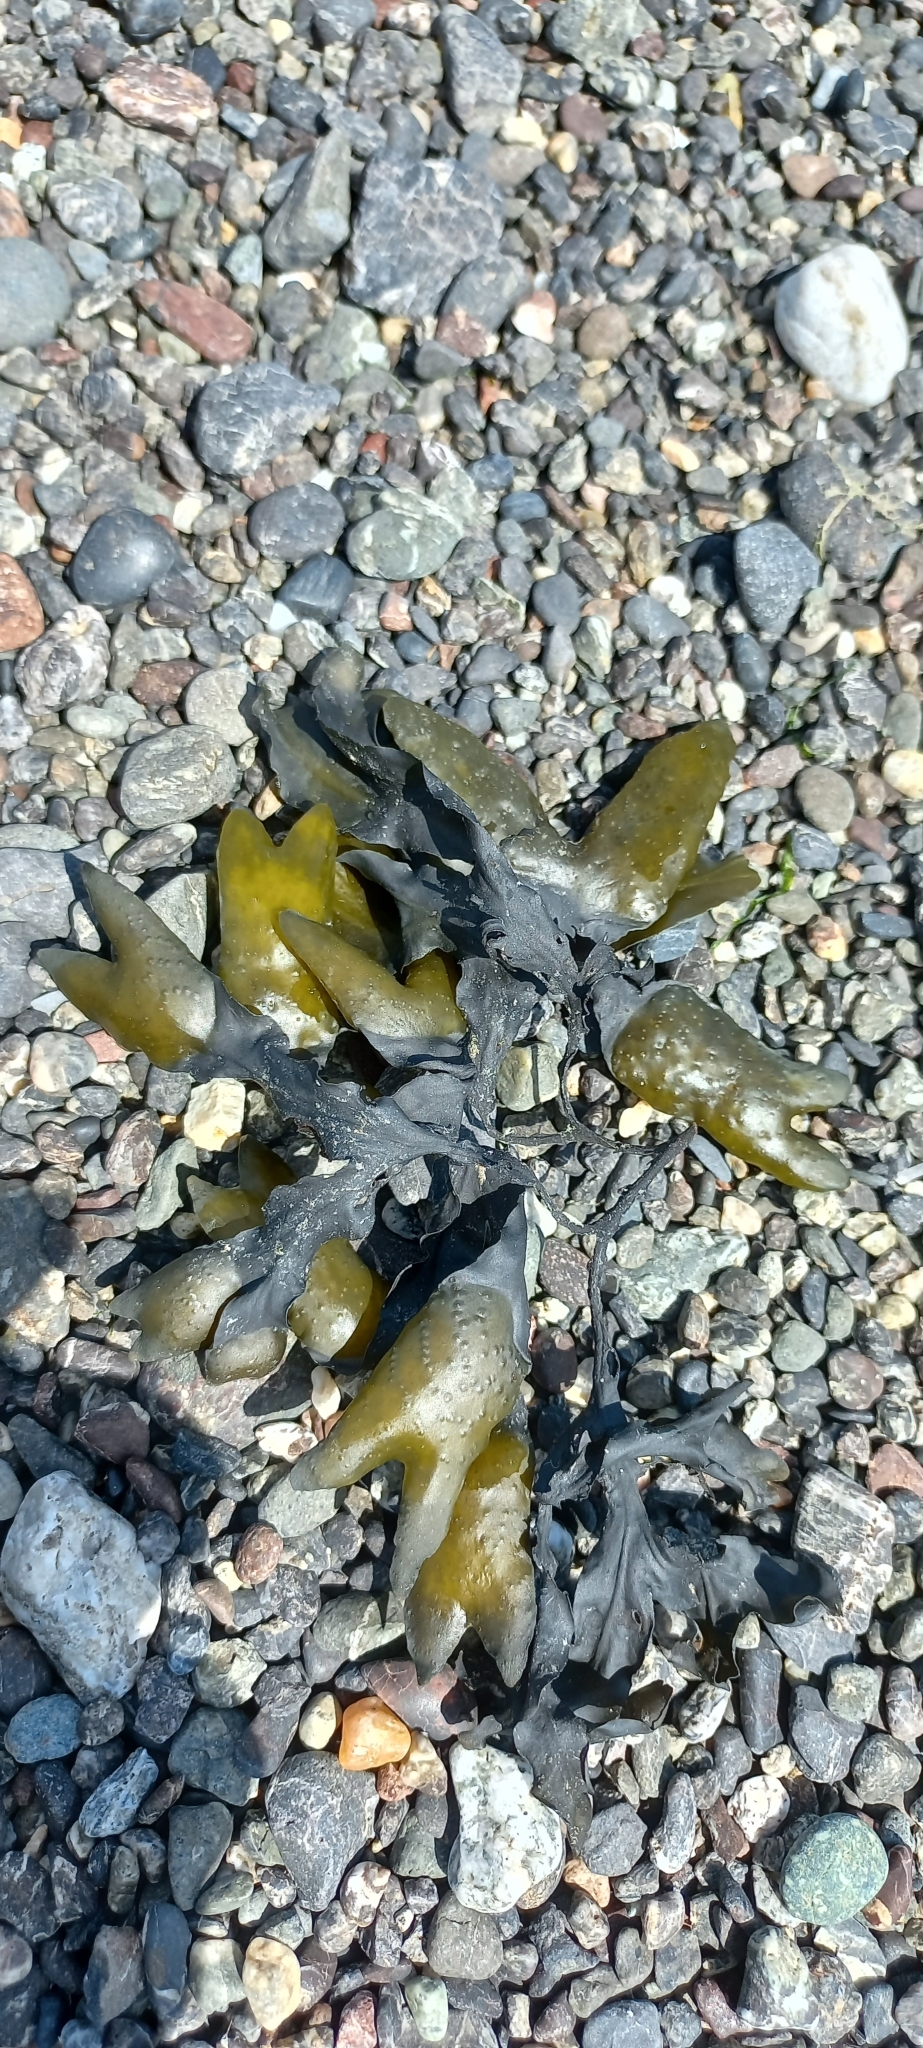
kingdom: Chromista
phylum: Ochrophyta
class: Phaeophyceae
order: Fucales
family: Fucaceae
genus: Fucus
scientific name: Fucus distichus
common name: Rockweed
